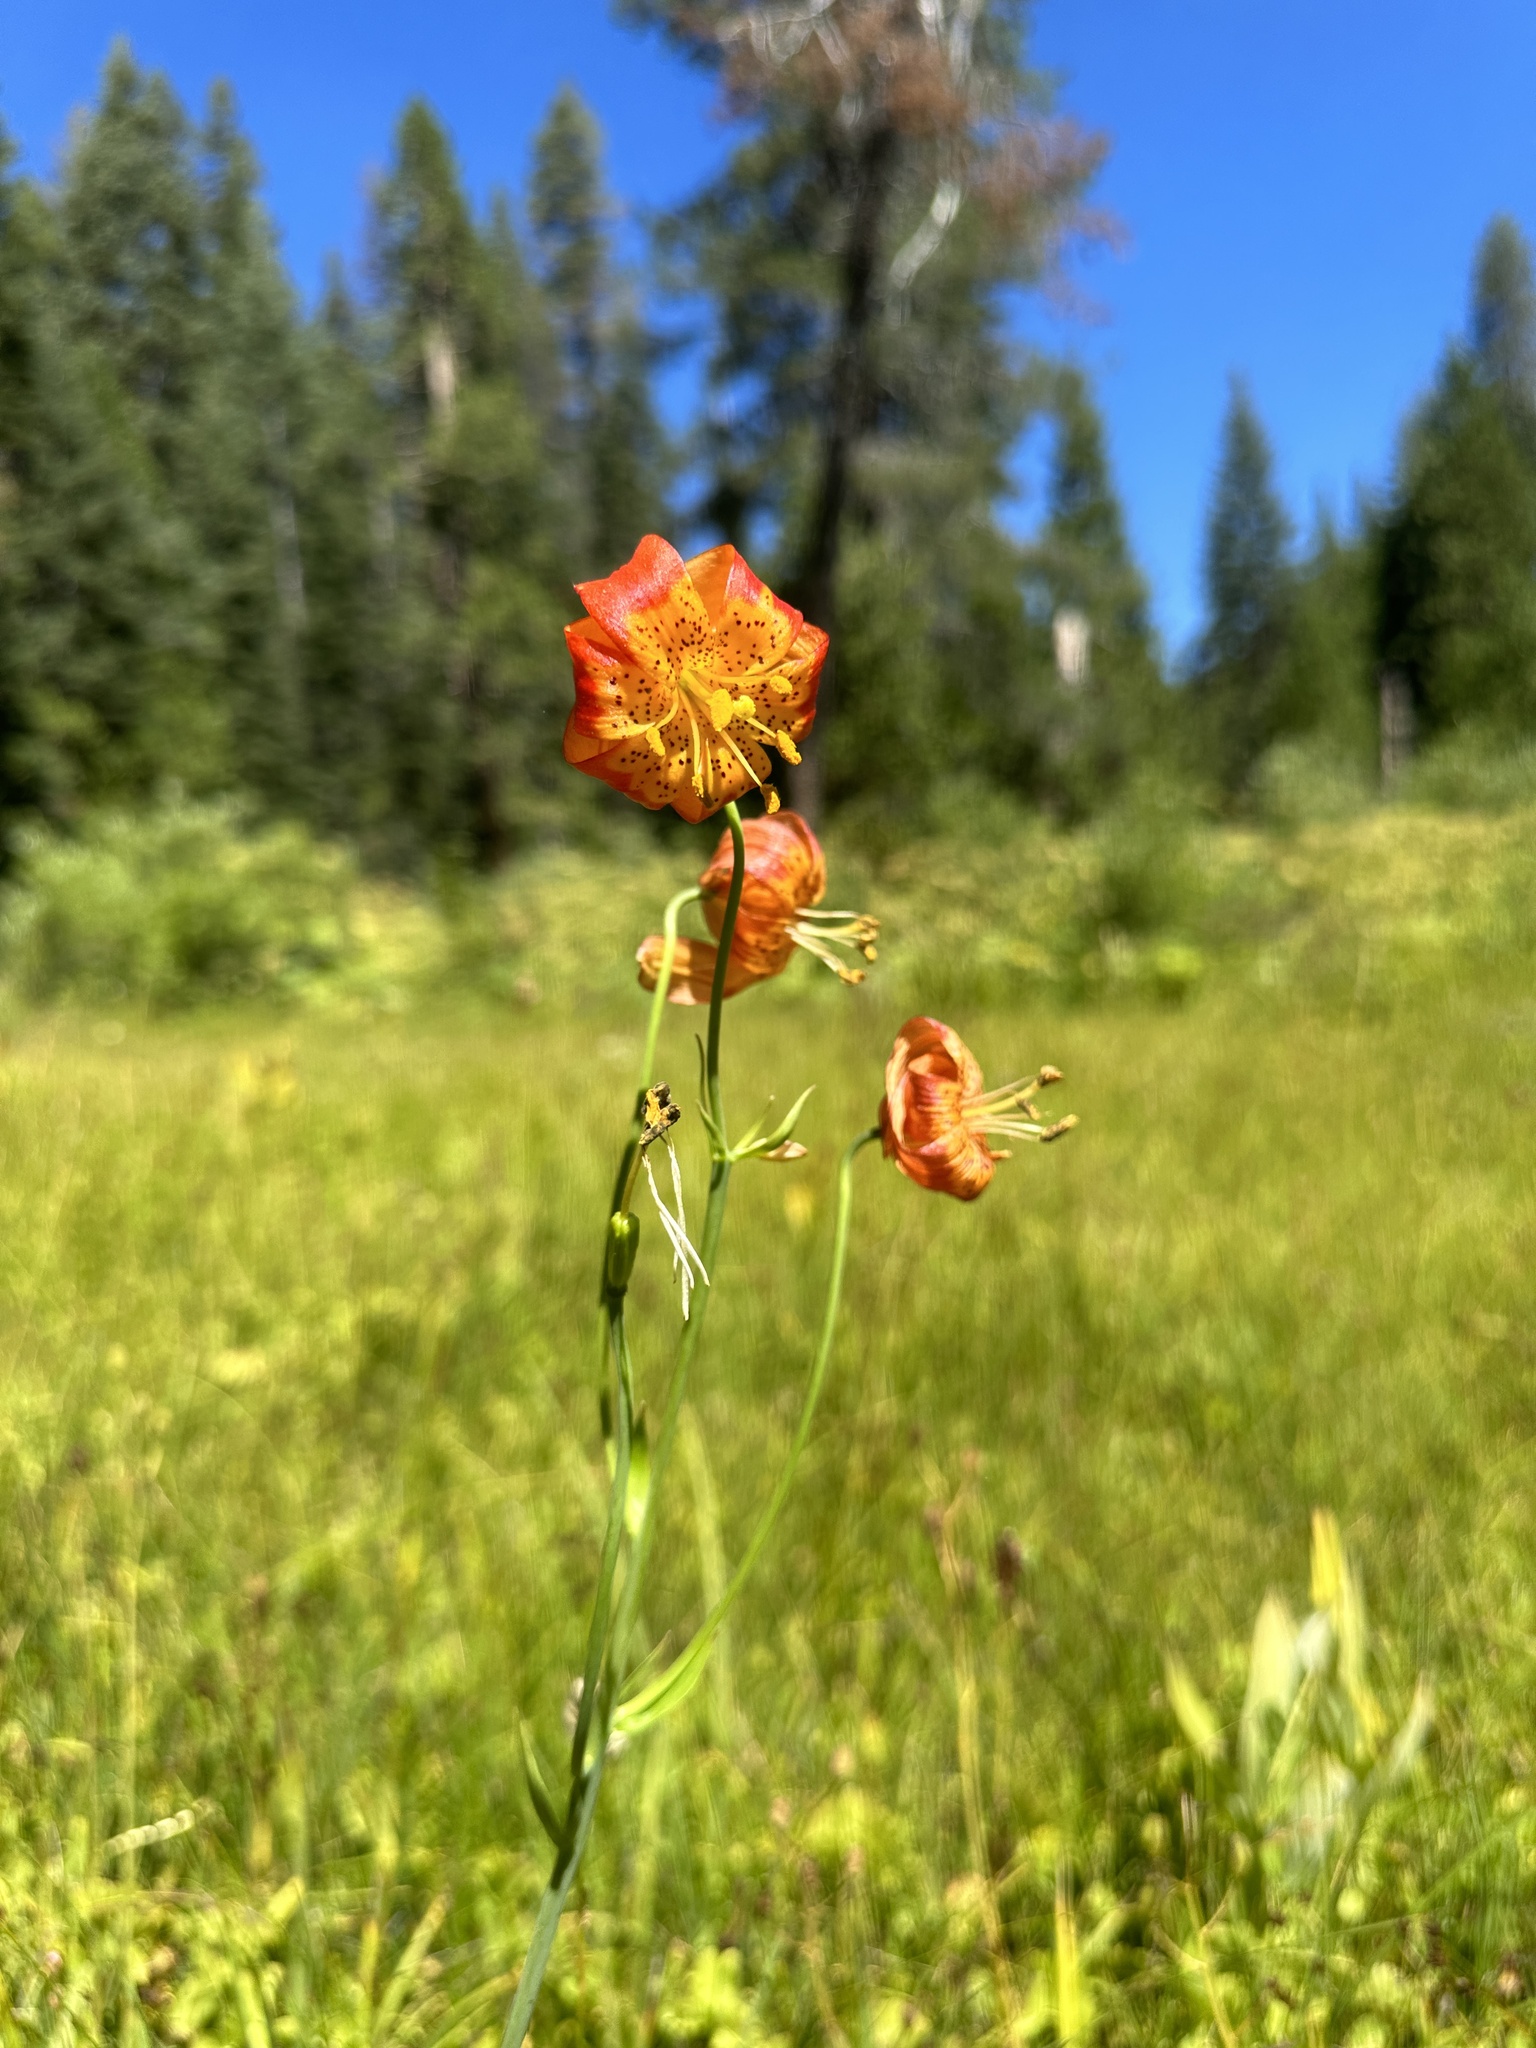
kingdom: Plantae
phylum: Tracheophyta
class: Liliopsida
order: Liliales
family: Liliaceae
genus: Lilium
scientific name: Lilium pardalinum
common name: Panther lily
